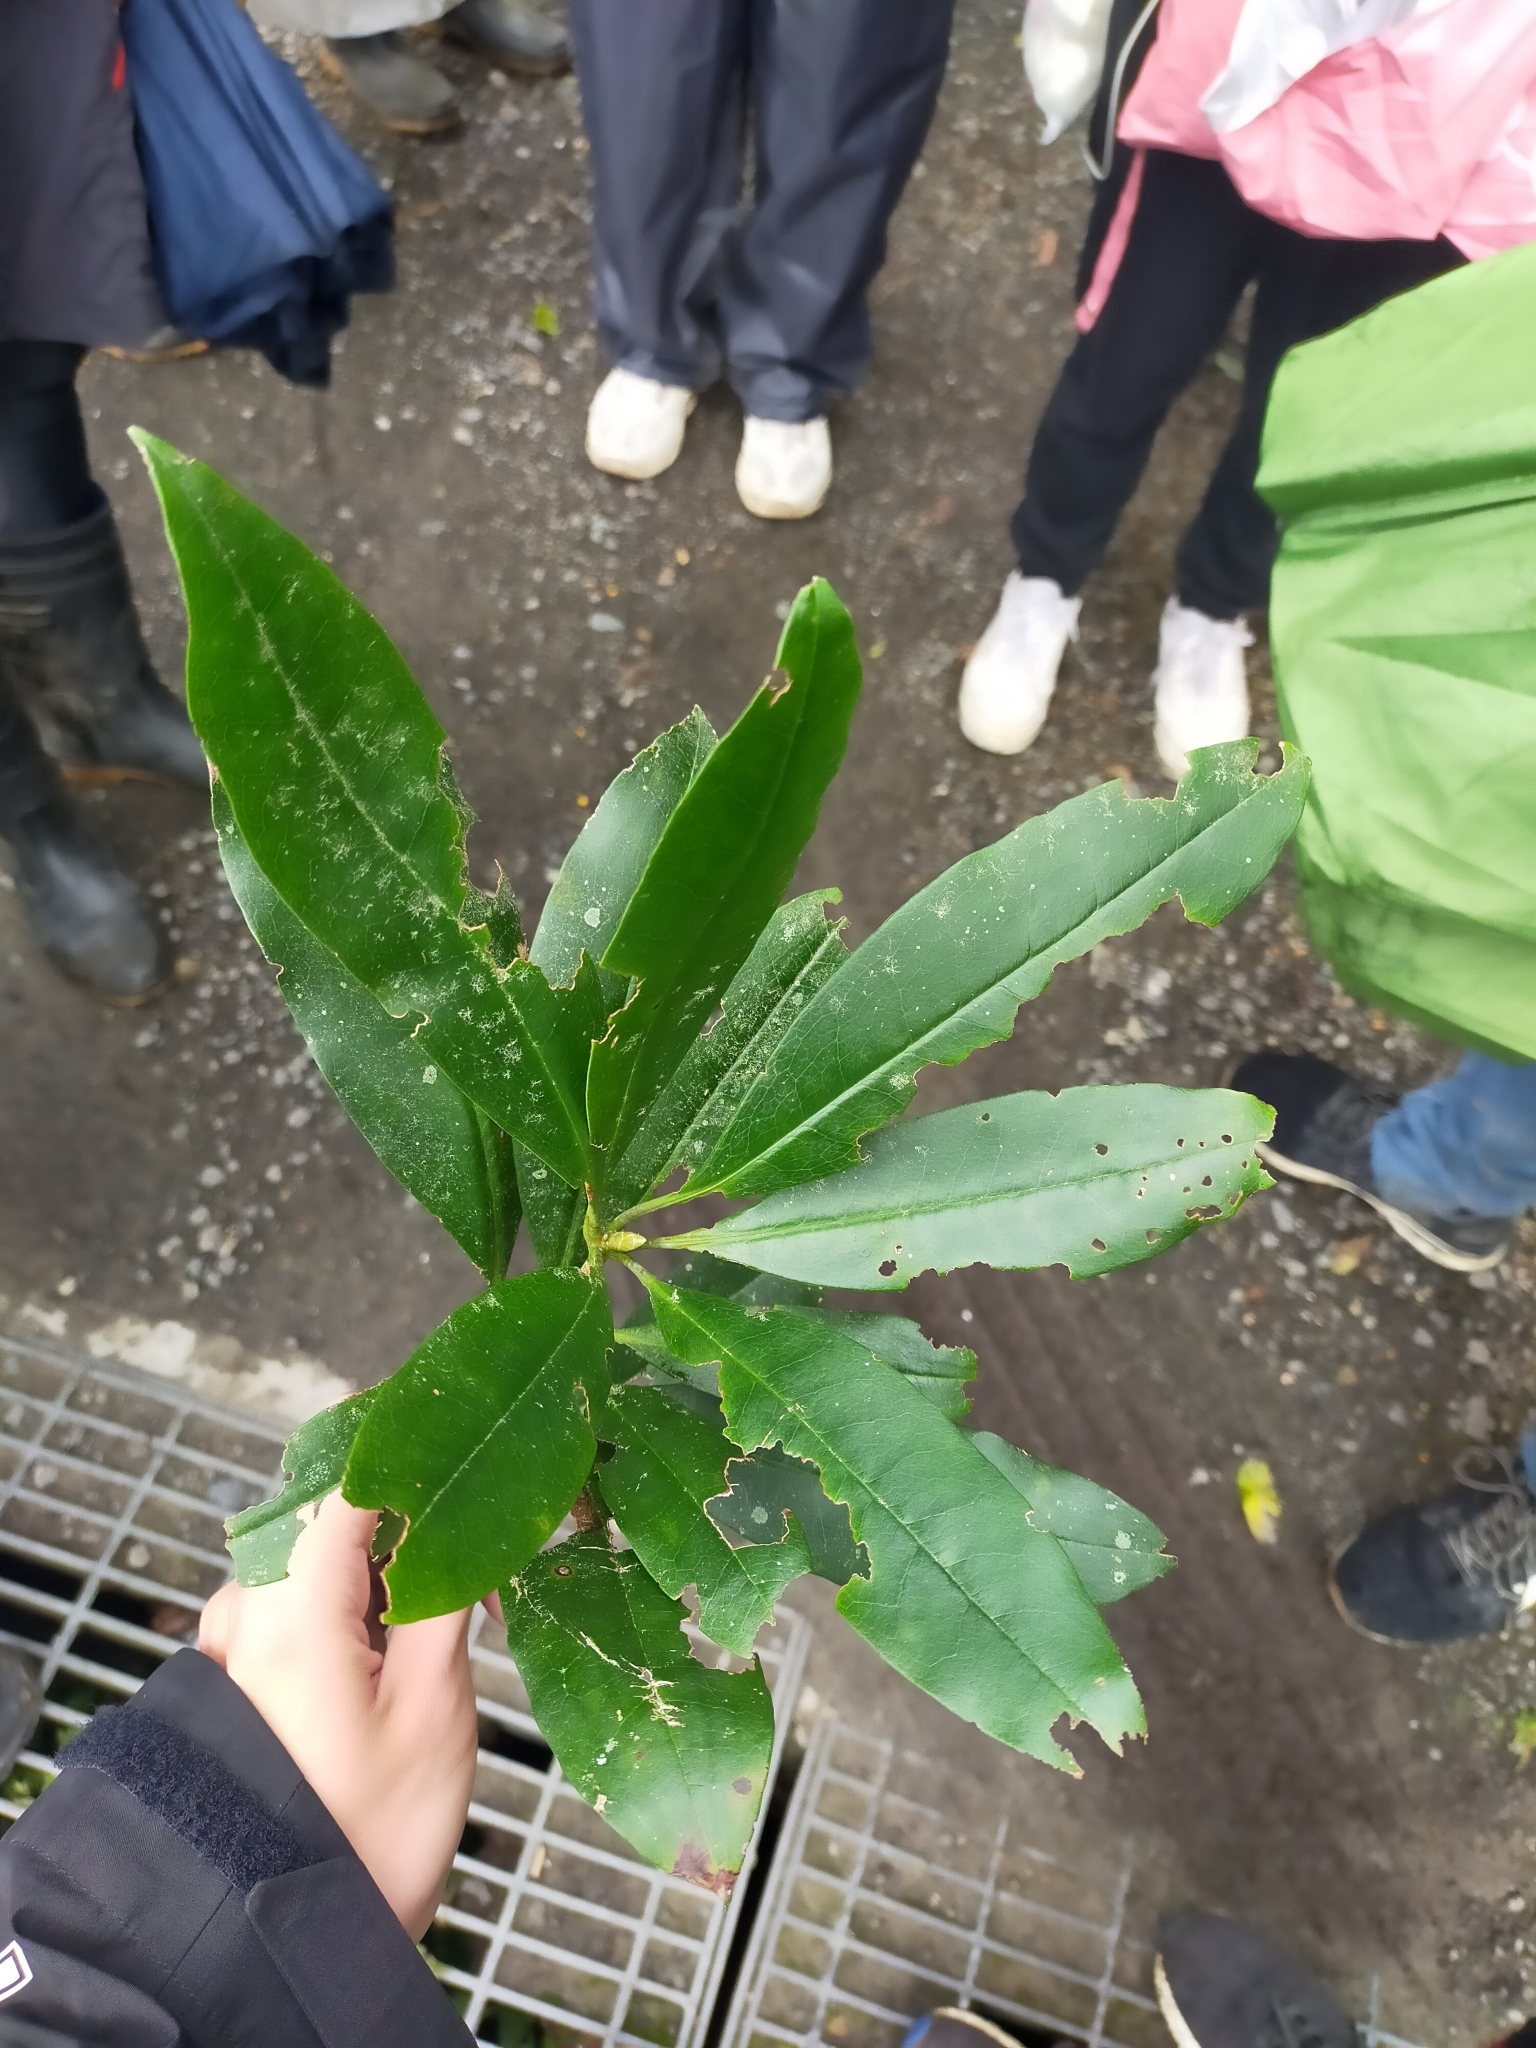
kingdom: Plantae
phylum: Tracheophyta
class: Magnoliopsida
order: Ericales
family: Ericaceae
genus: Rhododendron
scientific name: Rhododendron latoucheae
